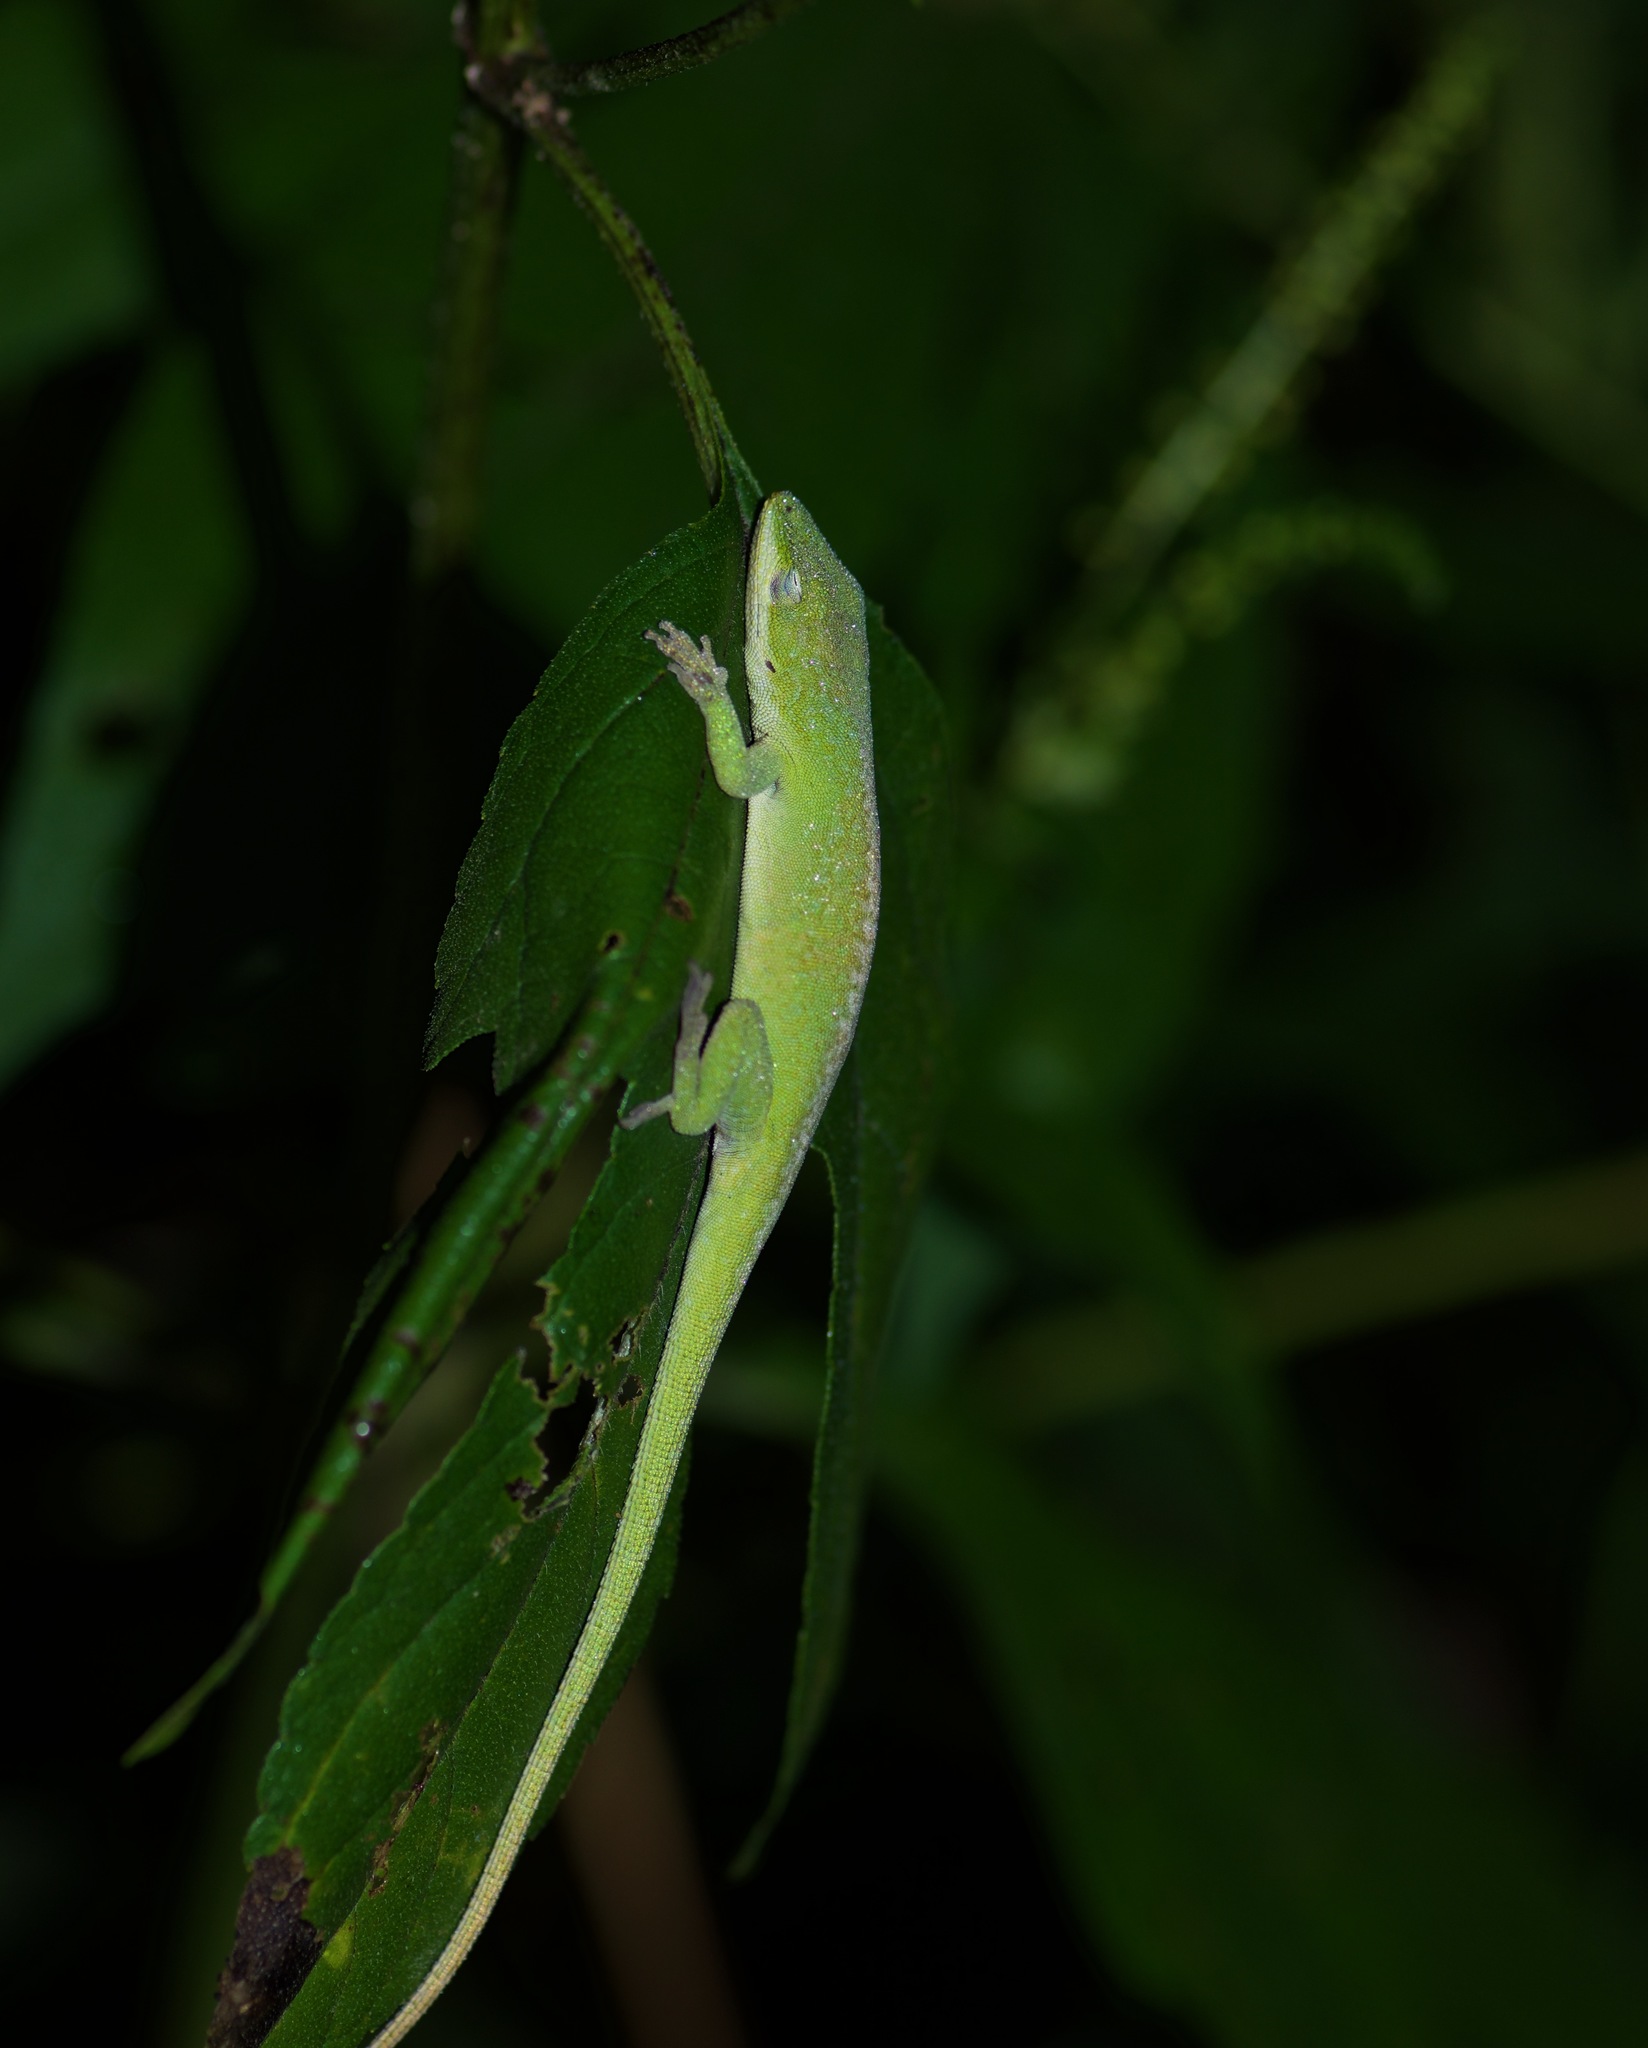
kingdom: Animalia
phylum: Chordata
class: Squamata
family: Dactyloidae
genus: Anolis
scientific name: Anolis carolinensis
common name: Green anole
